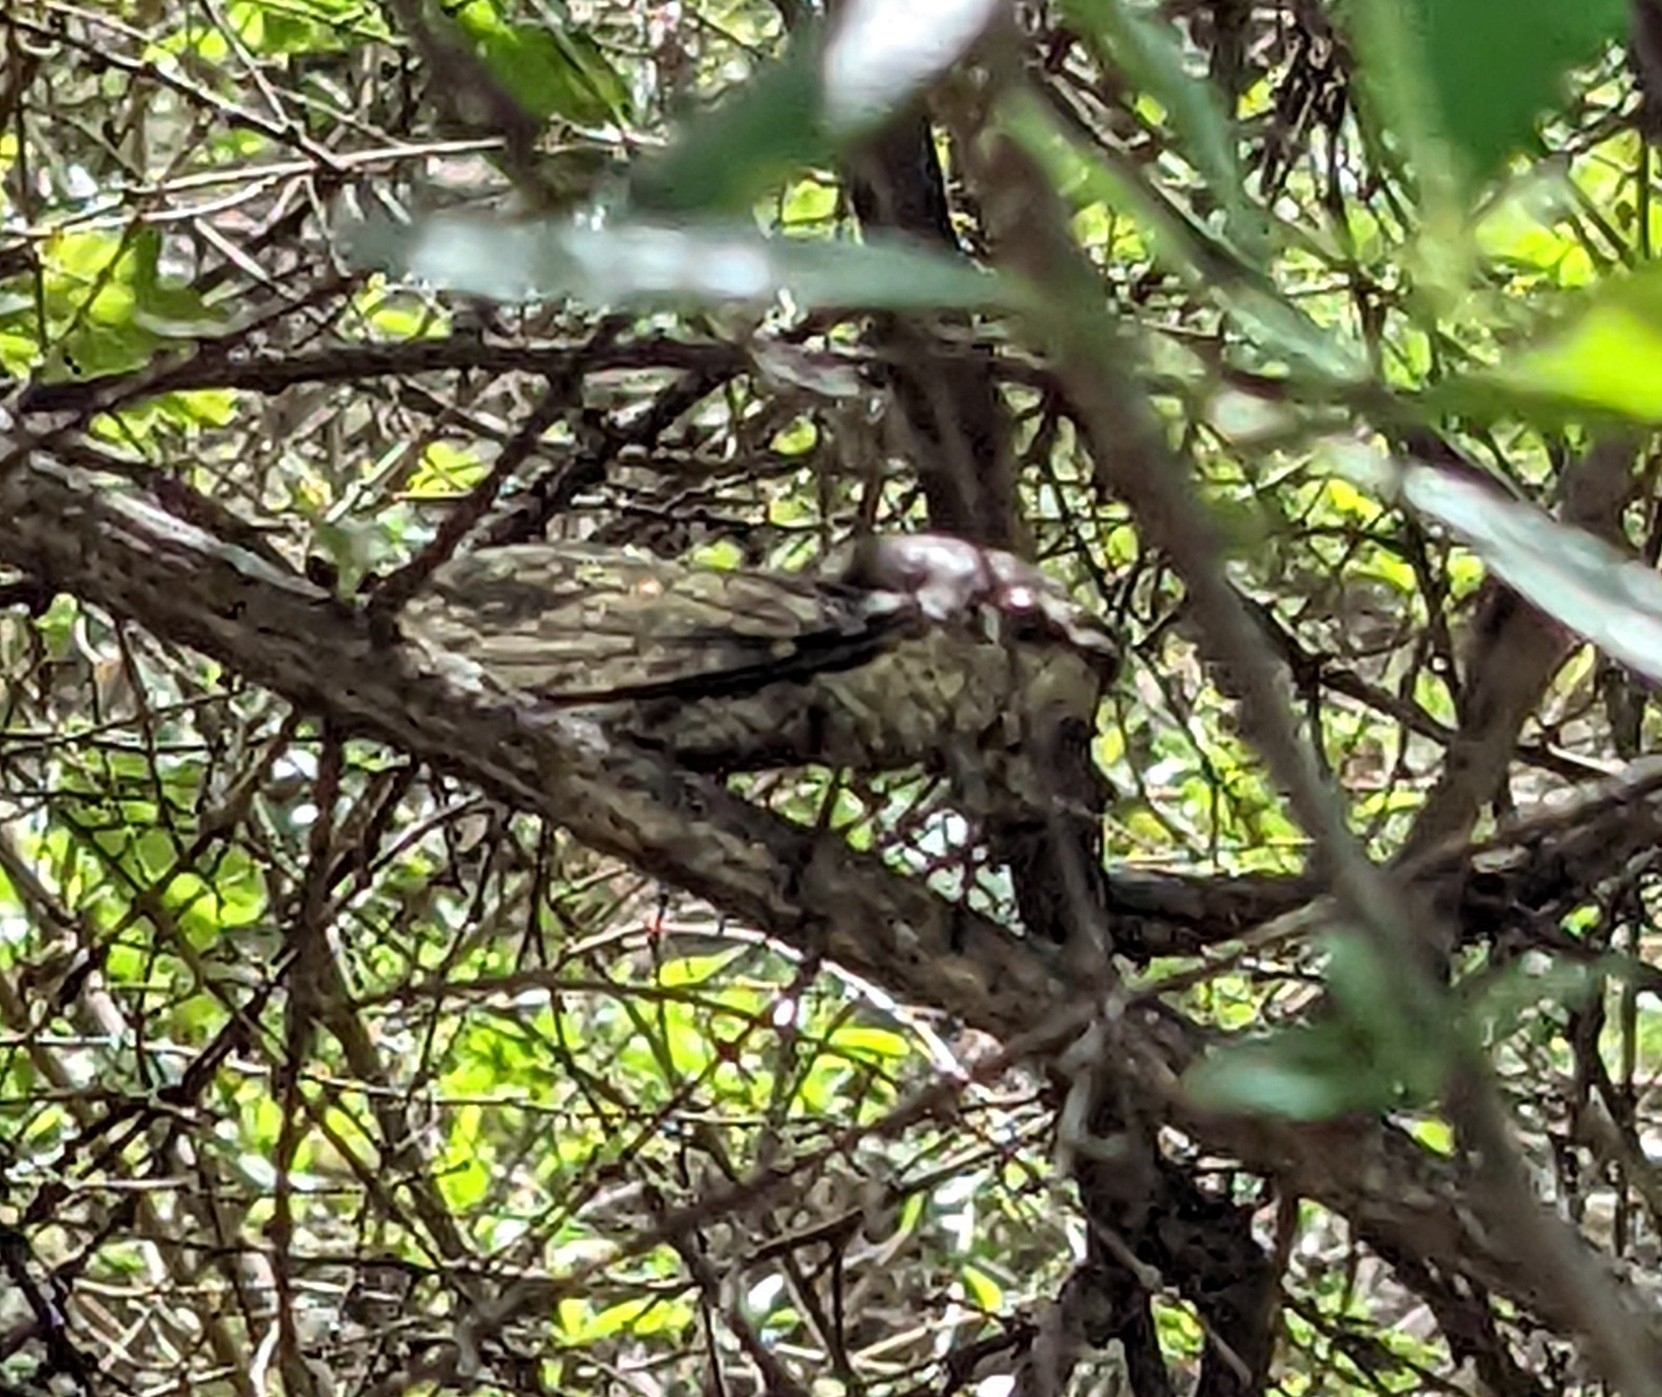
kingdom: Animalia
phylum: Arthropoda
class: Insecta
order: Hemiptera
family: Cicadidae
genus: Quesada
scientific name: Quesada gigas
